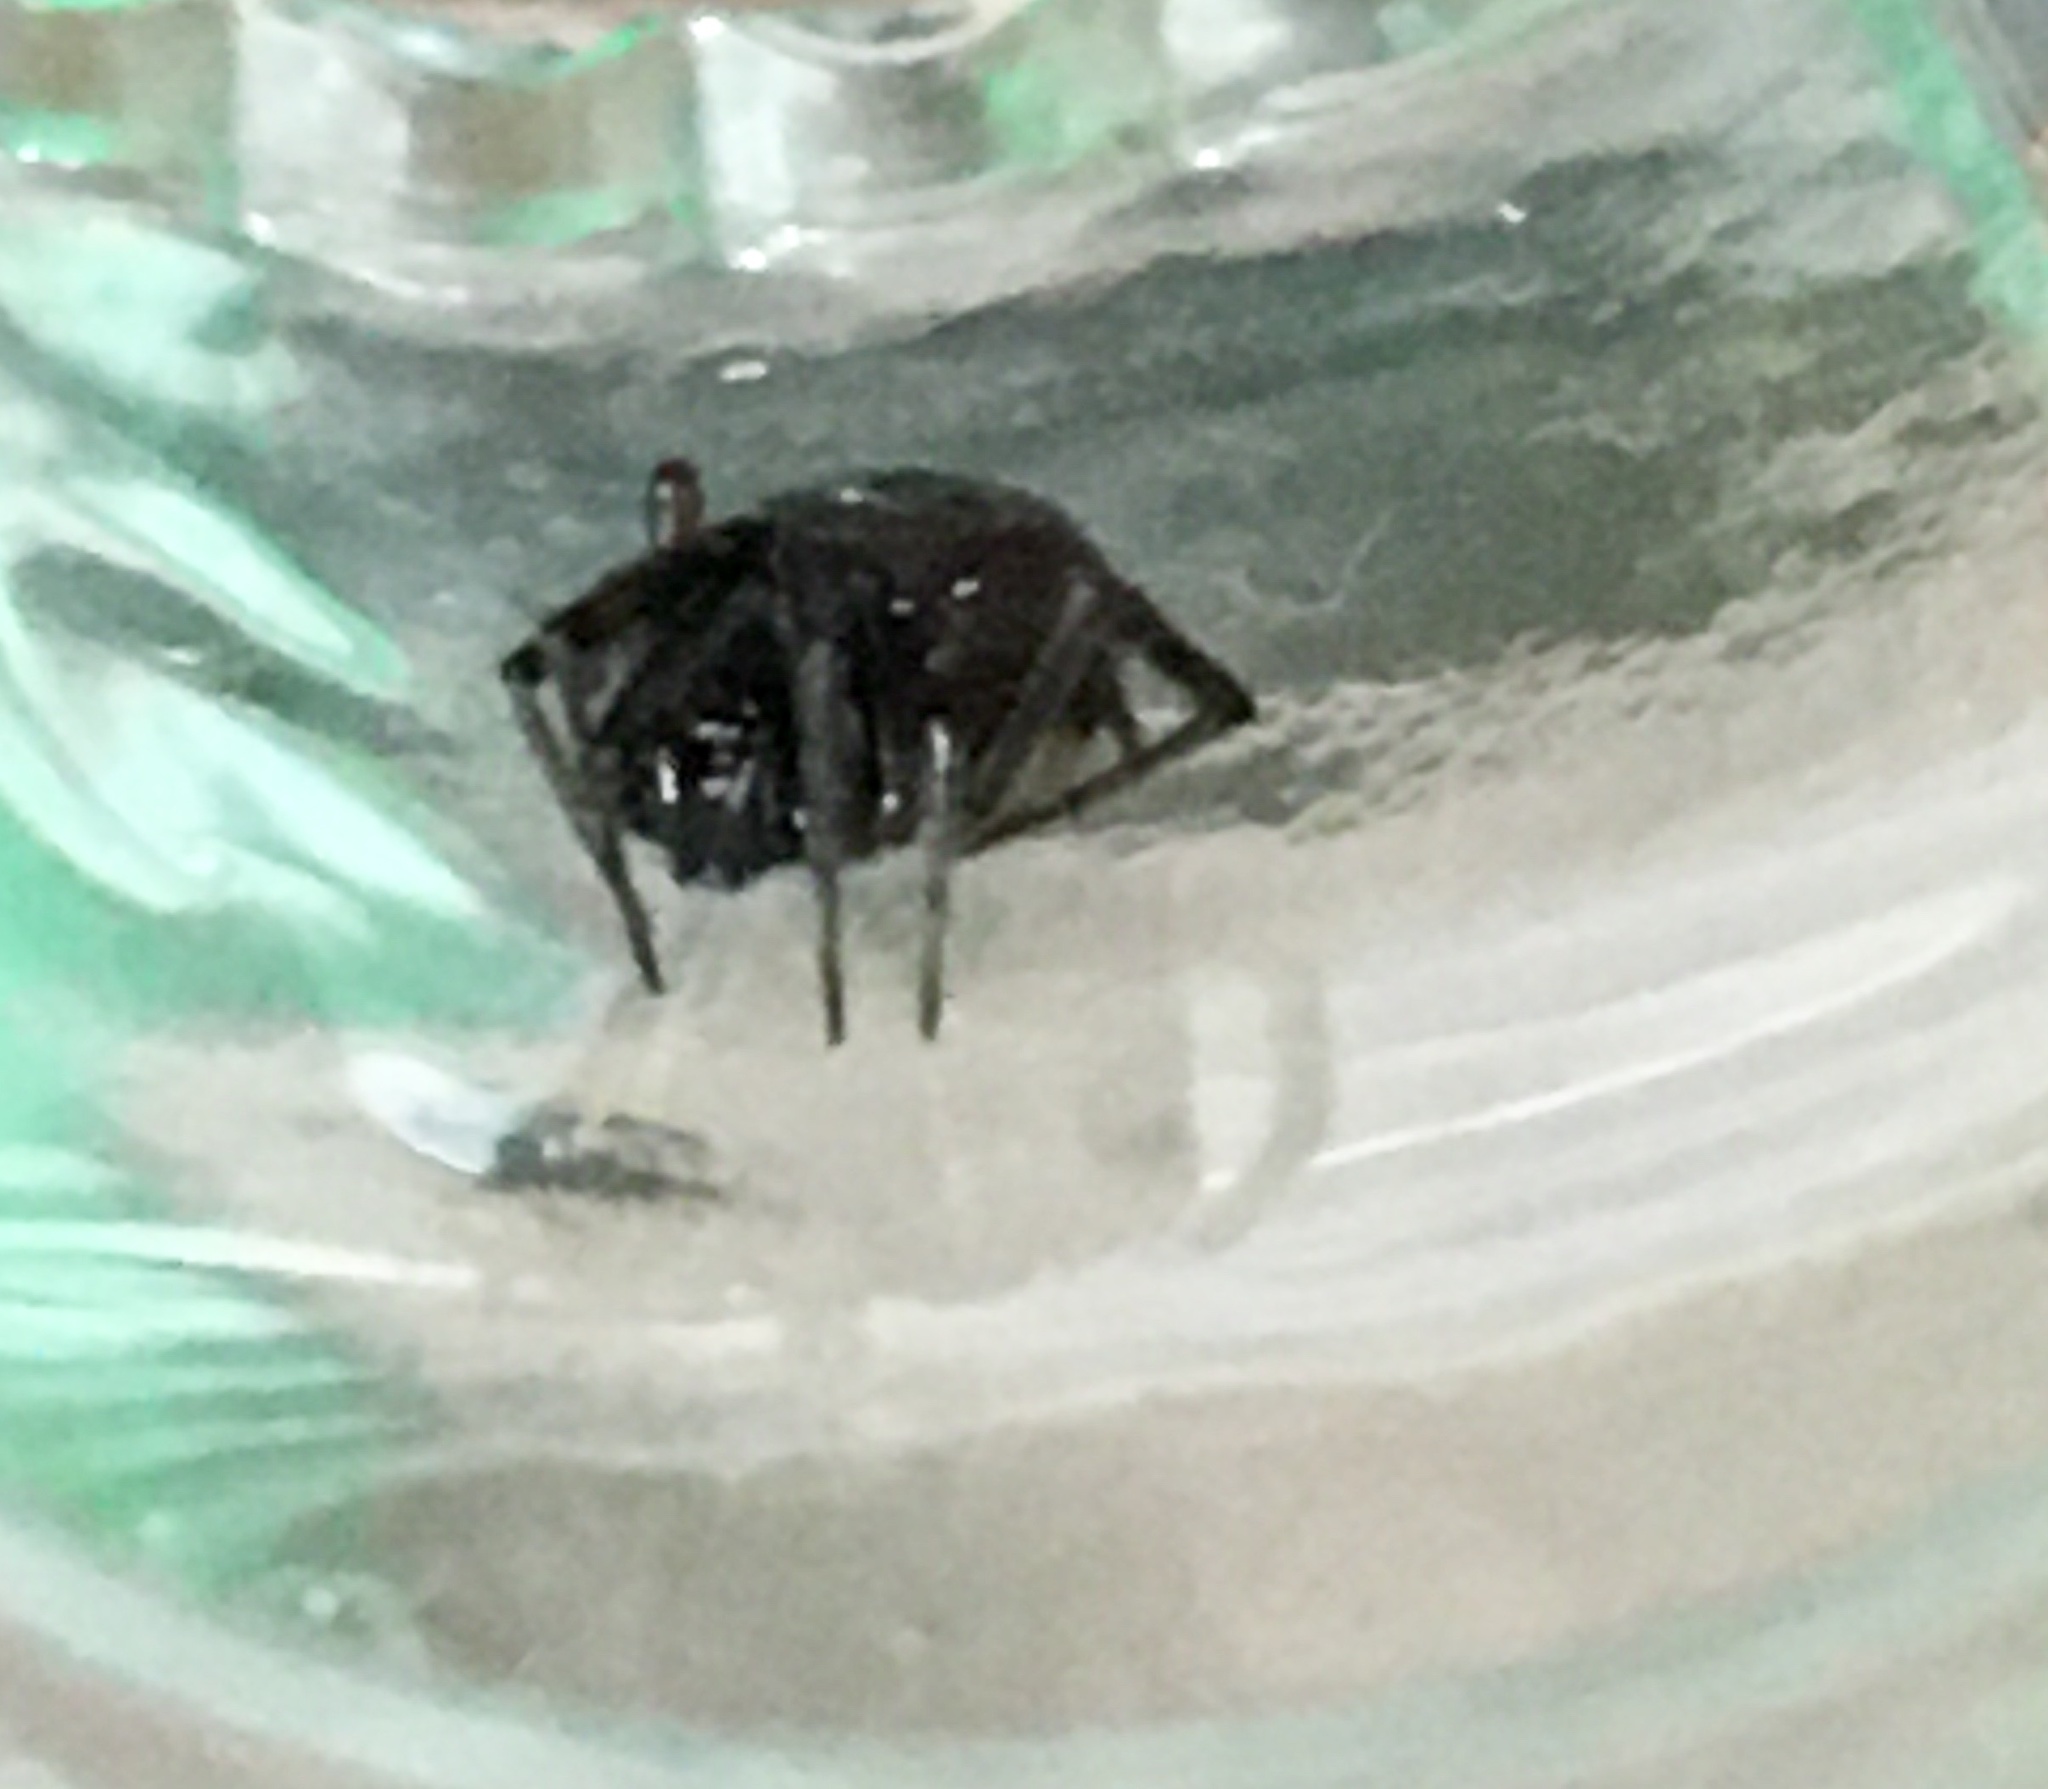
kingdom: Animalia
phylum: Arthropoda
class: Arachnida
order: Araneae
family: Theridiidae
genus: Steatoda
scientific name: Steatoda borealis
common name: Boreal combfoot
